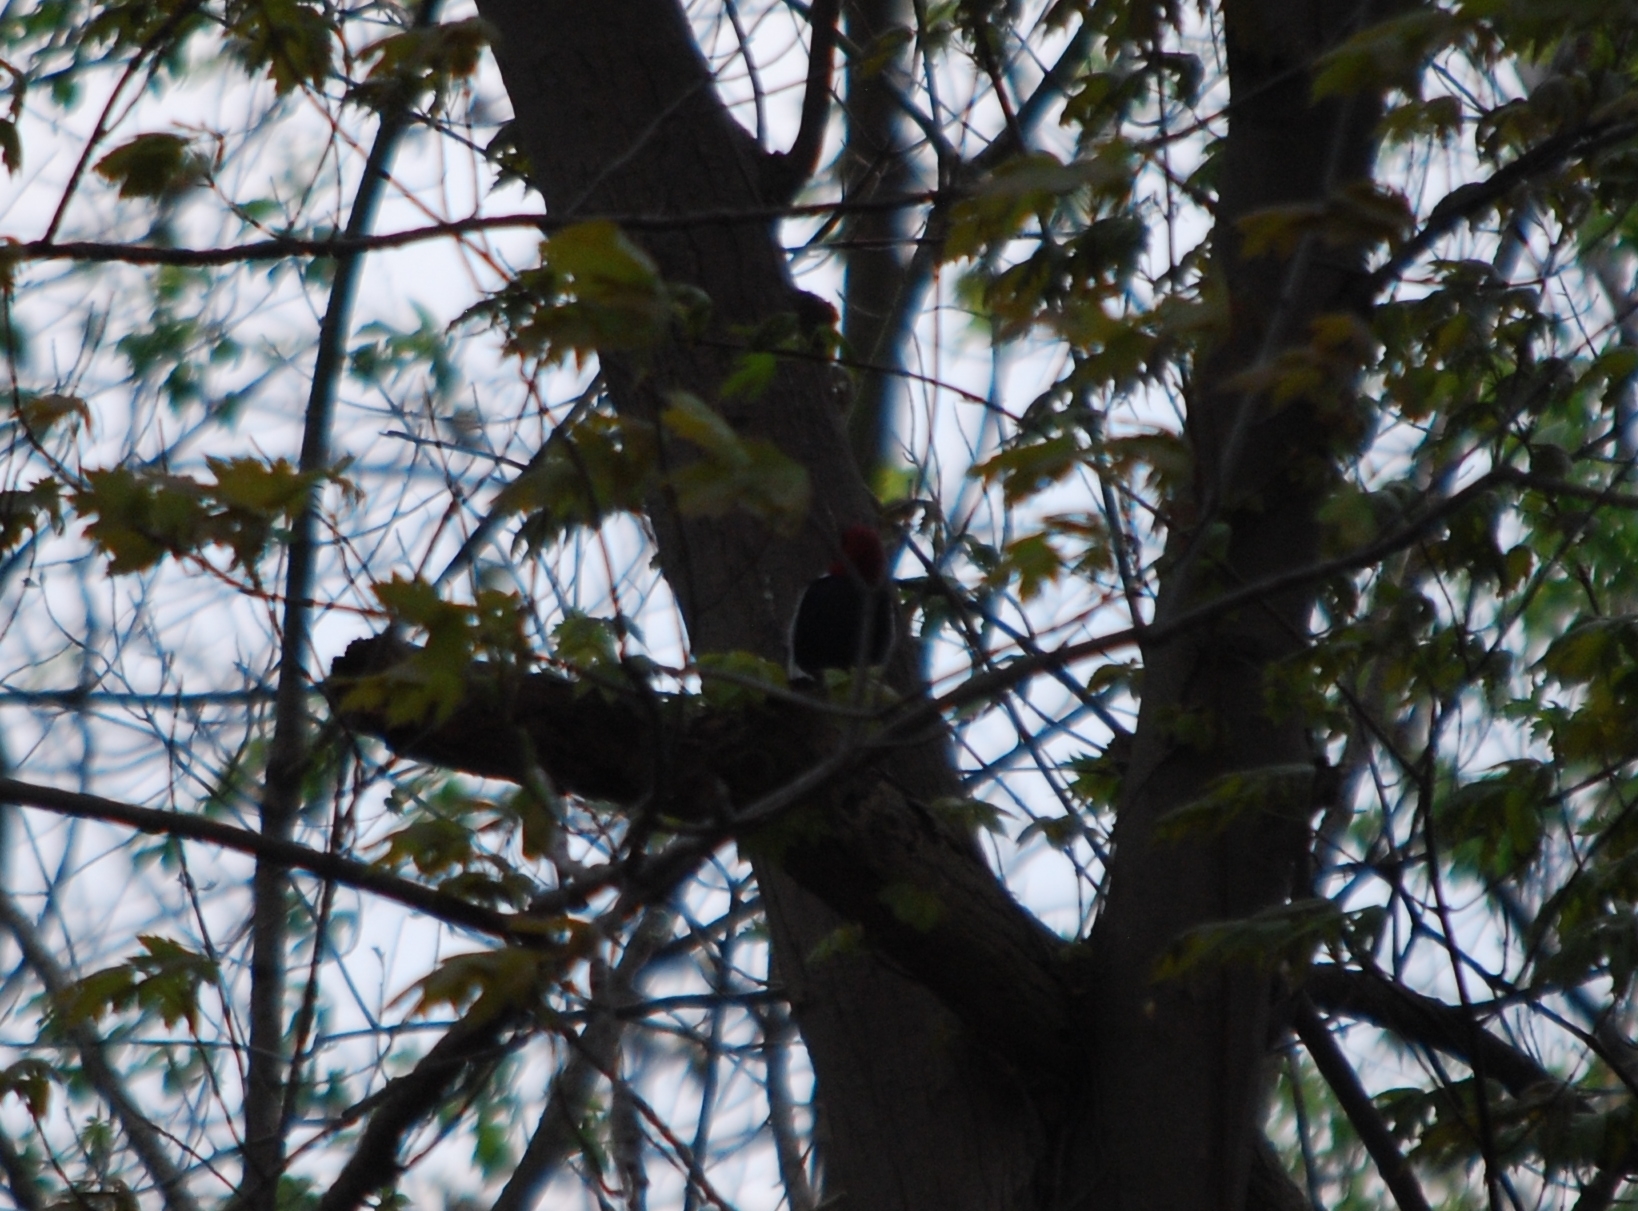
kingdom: Animalia
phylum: Chordata
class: Aves
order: Piciformes
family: Picidae
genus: Melanerpes
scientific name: Melanerpes erythrocephalus
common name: Red-headed woodpecker
